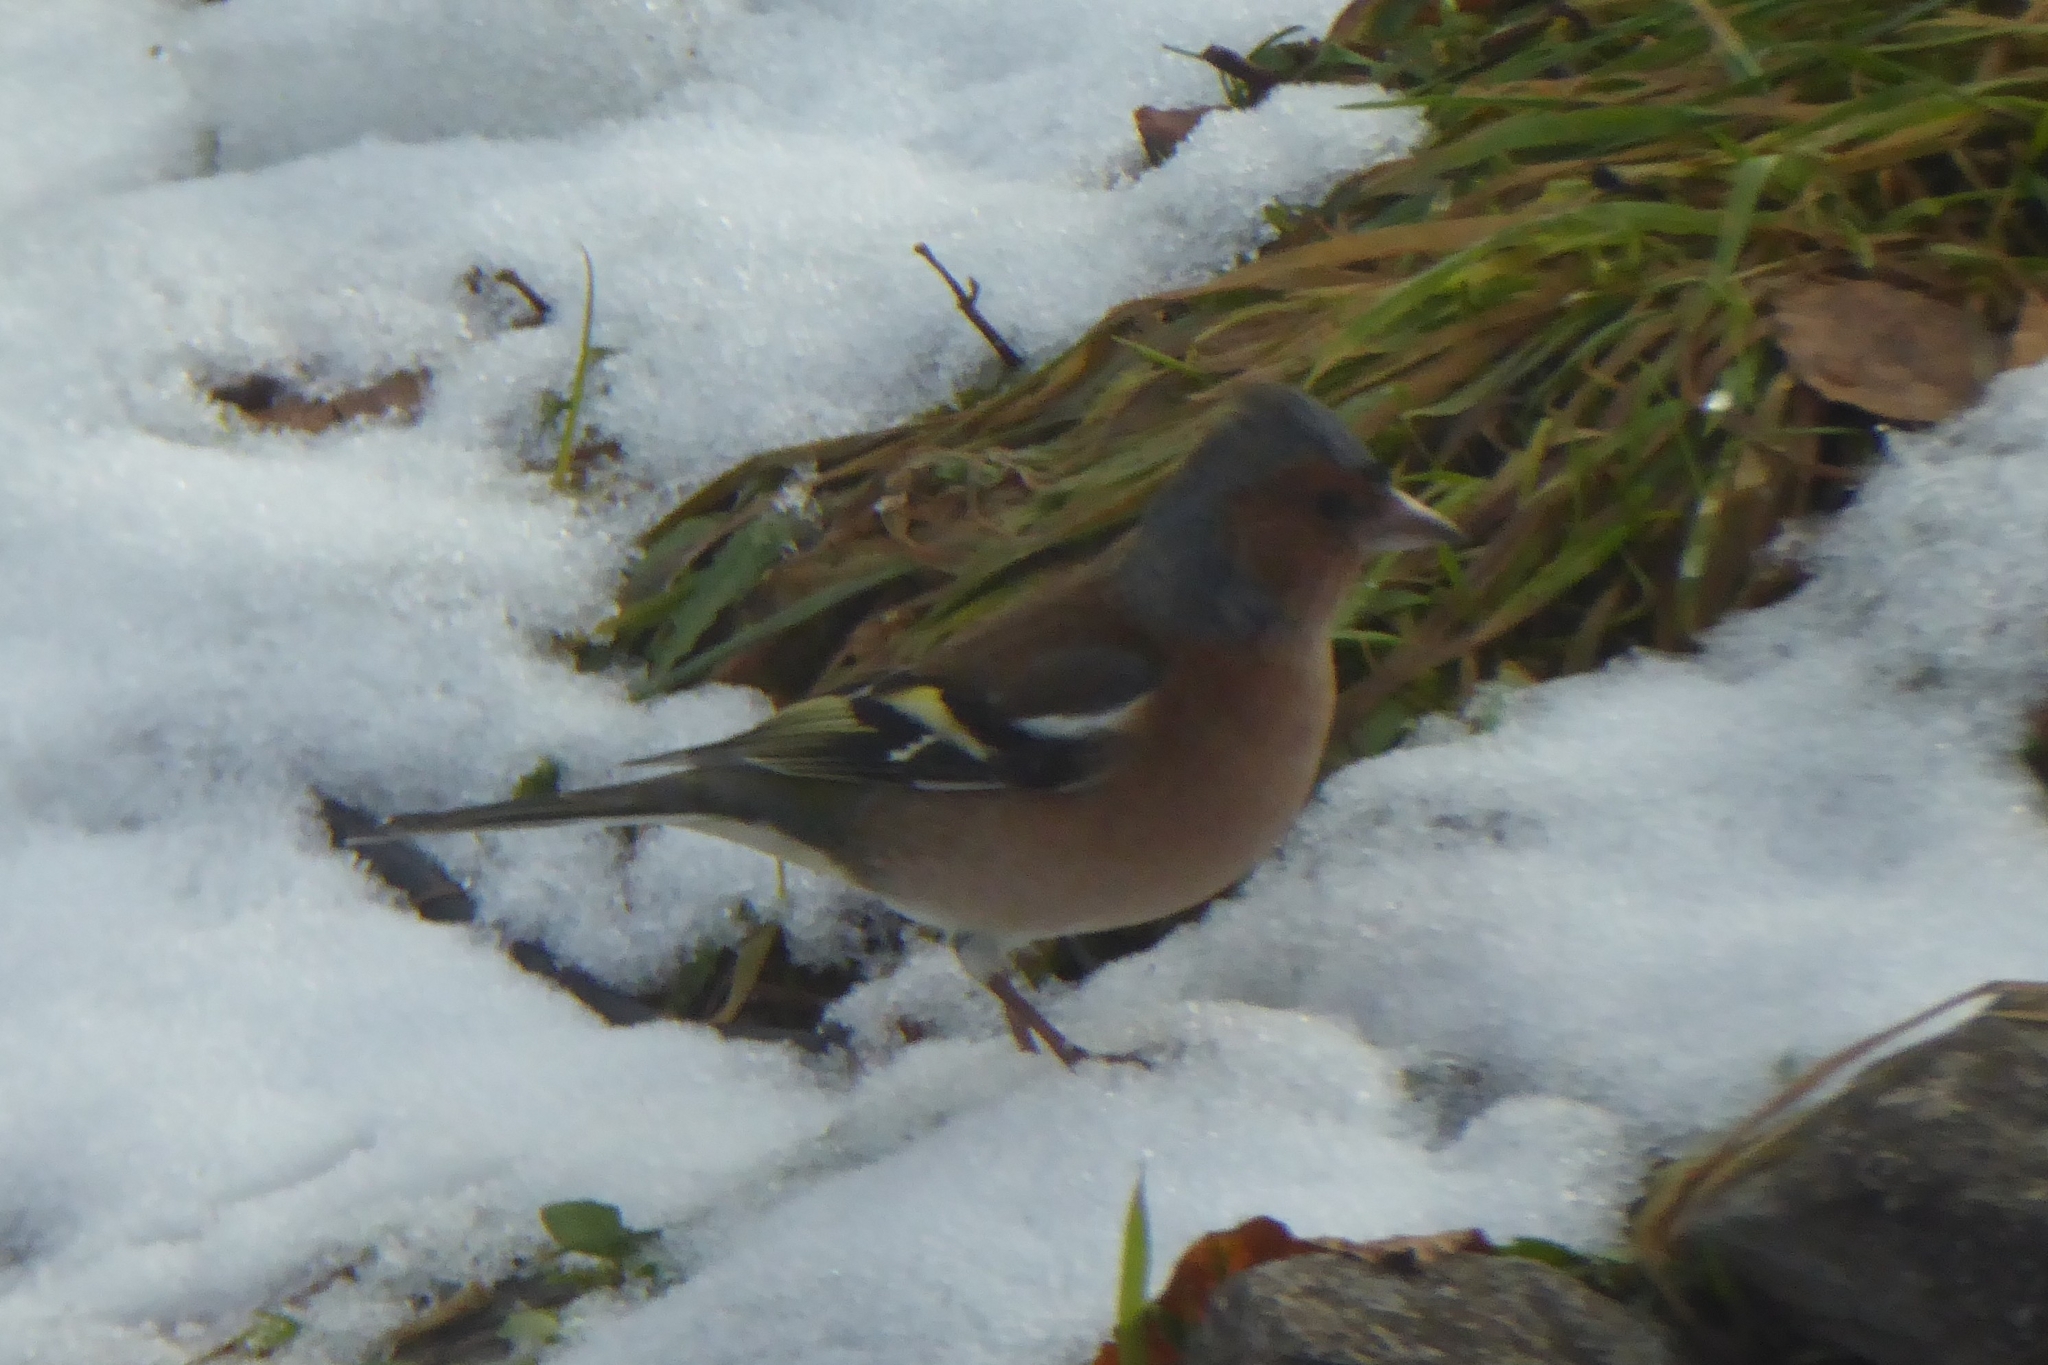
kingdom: Animalia
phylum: Chordata
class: Aves
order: Passeriformes
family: Fringillidae
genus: Fringilla
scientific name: Fringilla coelebs
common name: Common chaffinch
